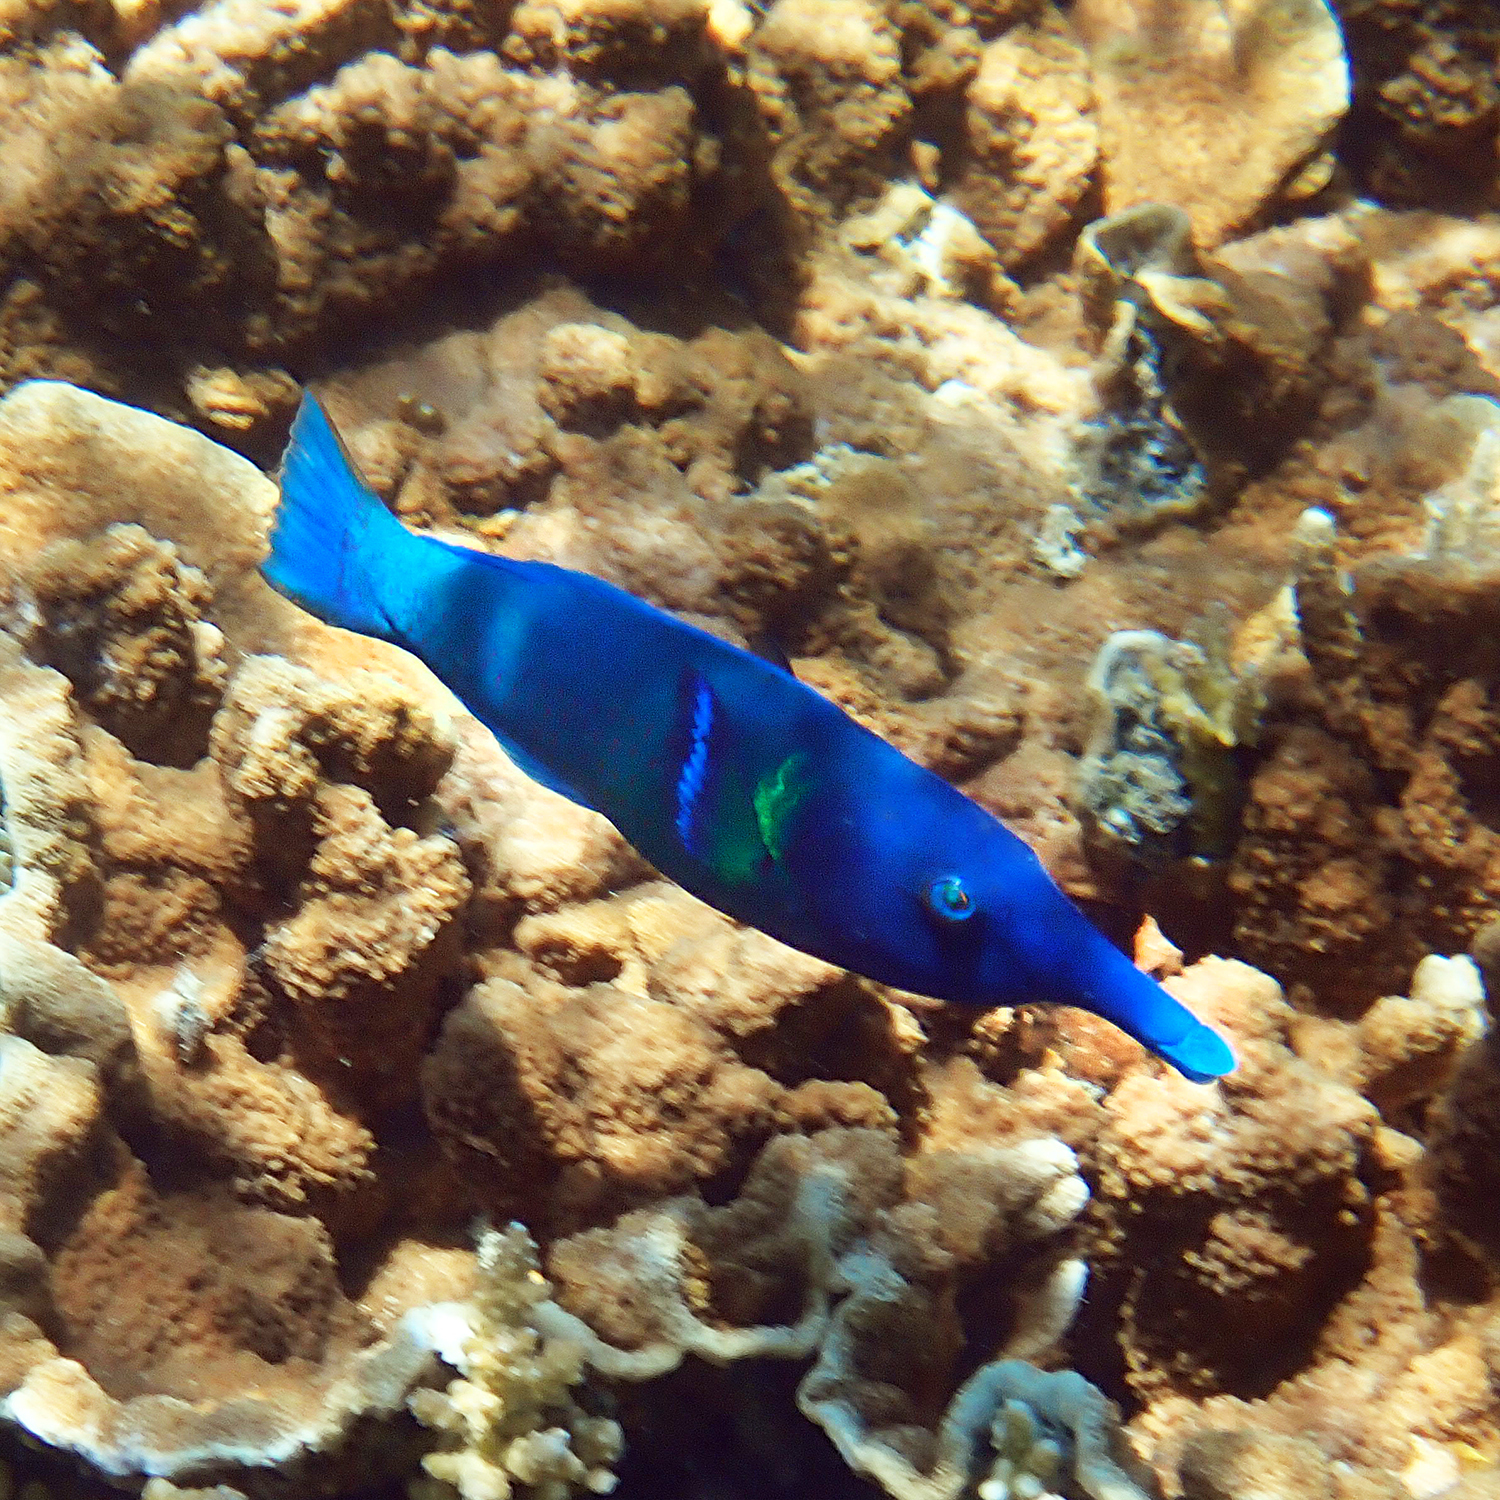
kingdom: Animalia
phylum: Chordata
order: Perciformes
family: Labridae
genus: Gomphosus
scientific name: Gomphosus varius
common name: Bird wrasse
